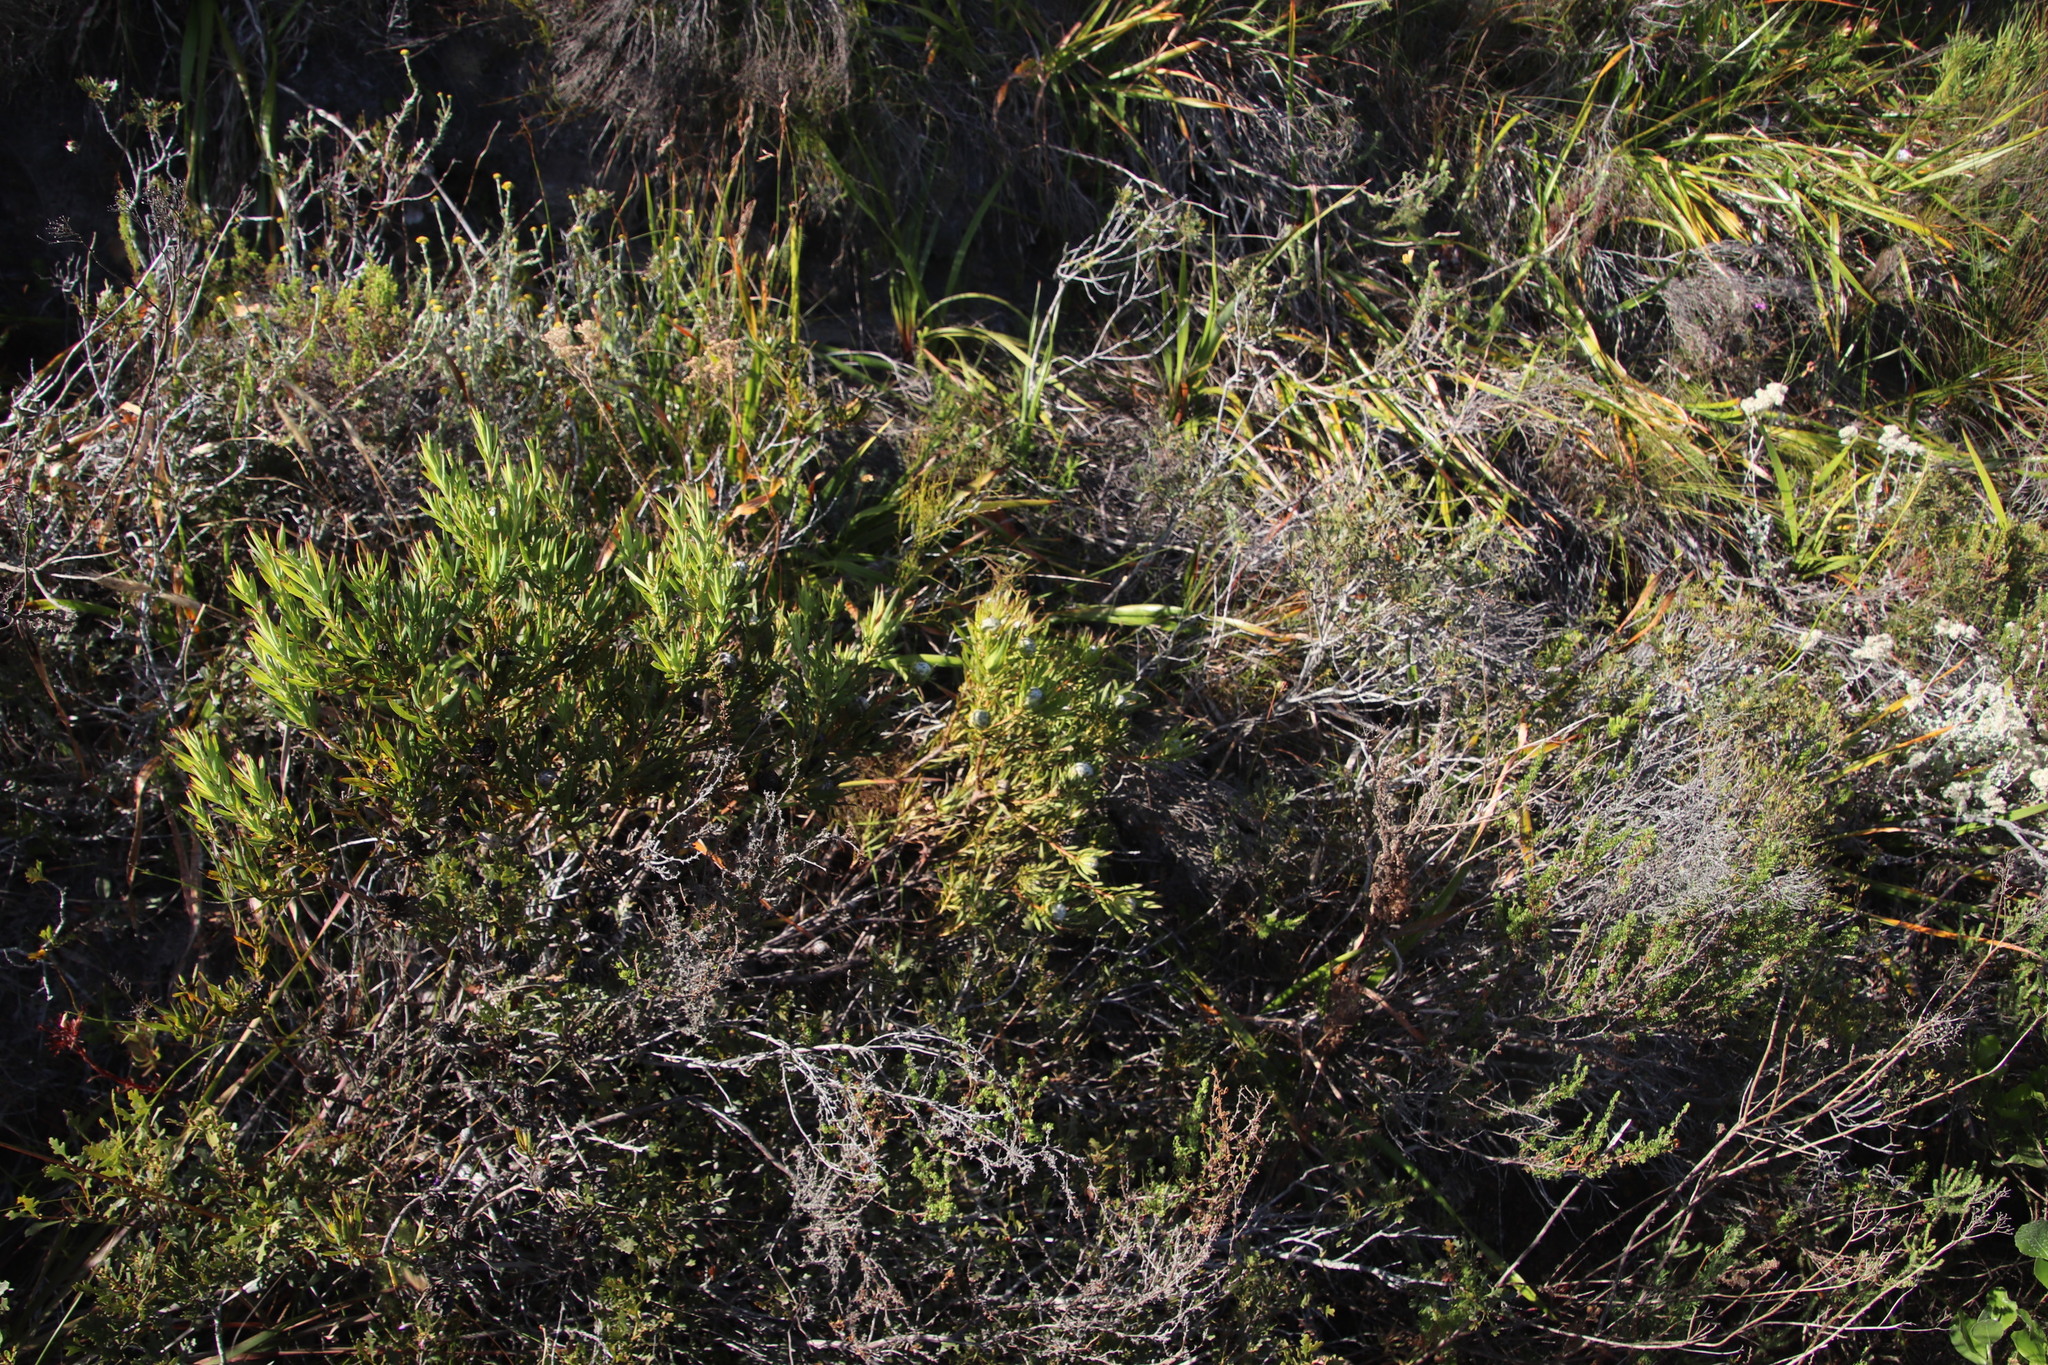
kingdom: Plantae
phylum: Tracheophyta
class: Magnoliopsida
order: Proteales
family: Proteaceae
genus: Leucadendron
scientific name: Leucadendron salignum
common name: Common sunshine conebush
